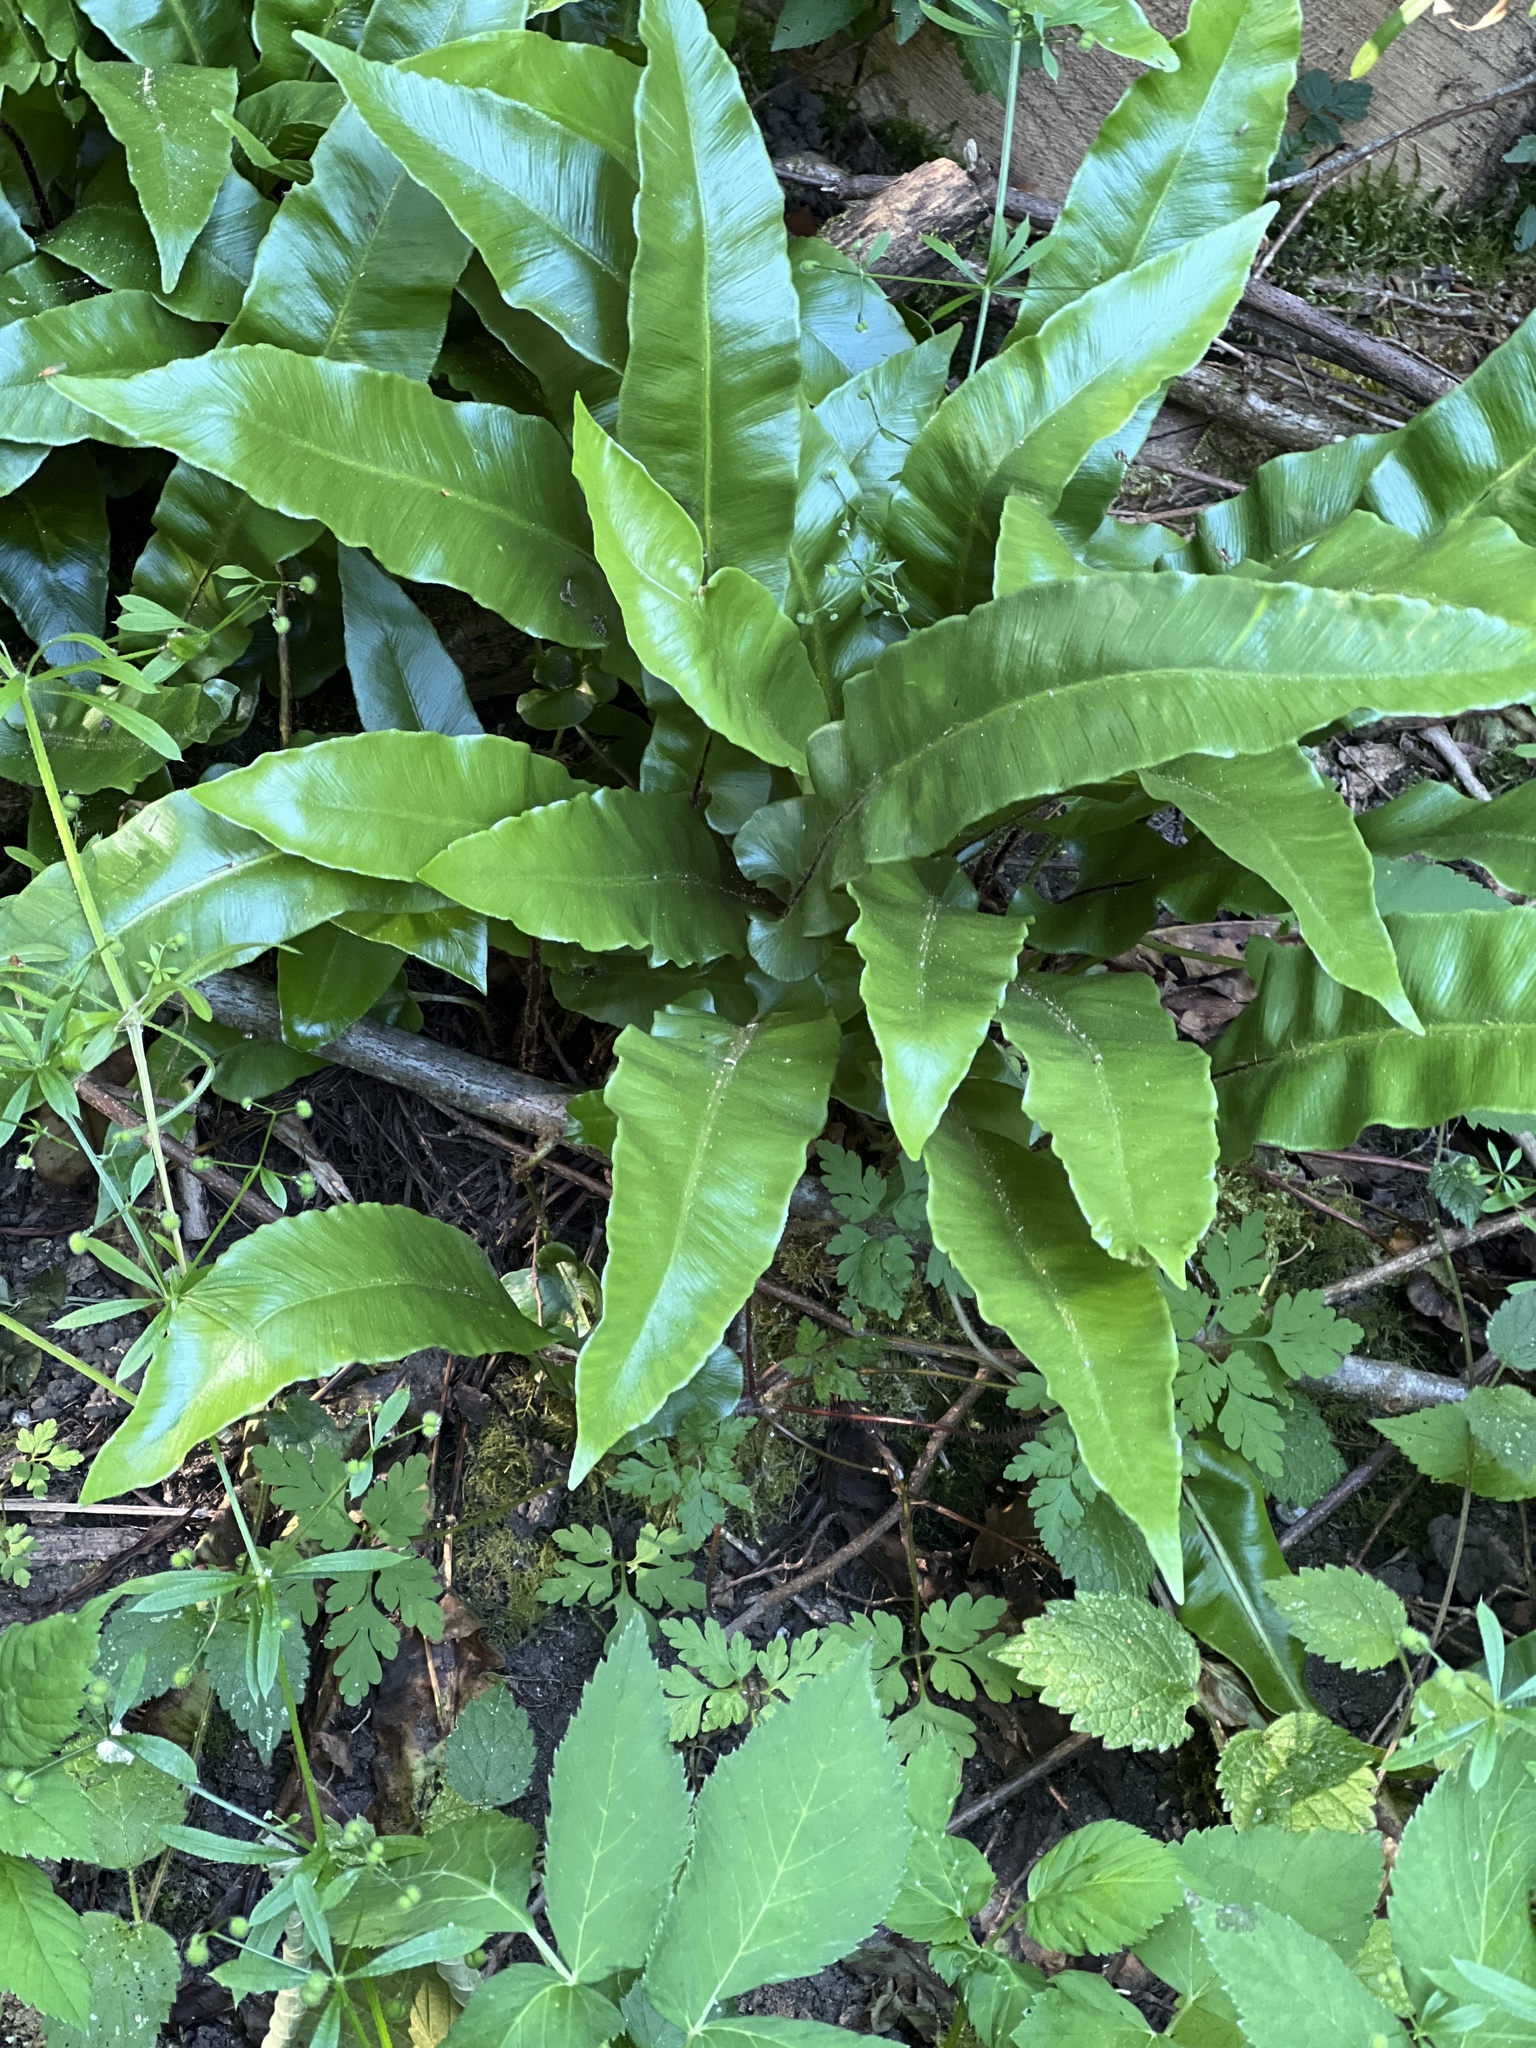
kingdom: Plantae
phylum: Tracheophyta
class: Polypodiopsida
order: Polypodiales
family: Aspleniaceae
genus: Asplenium
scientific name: Asplenium scolopendrium
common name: Hart's-tongue fern
